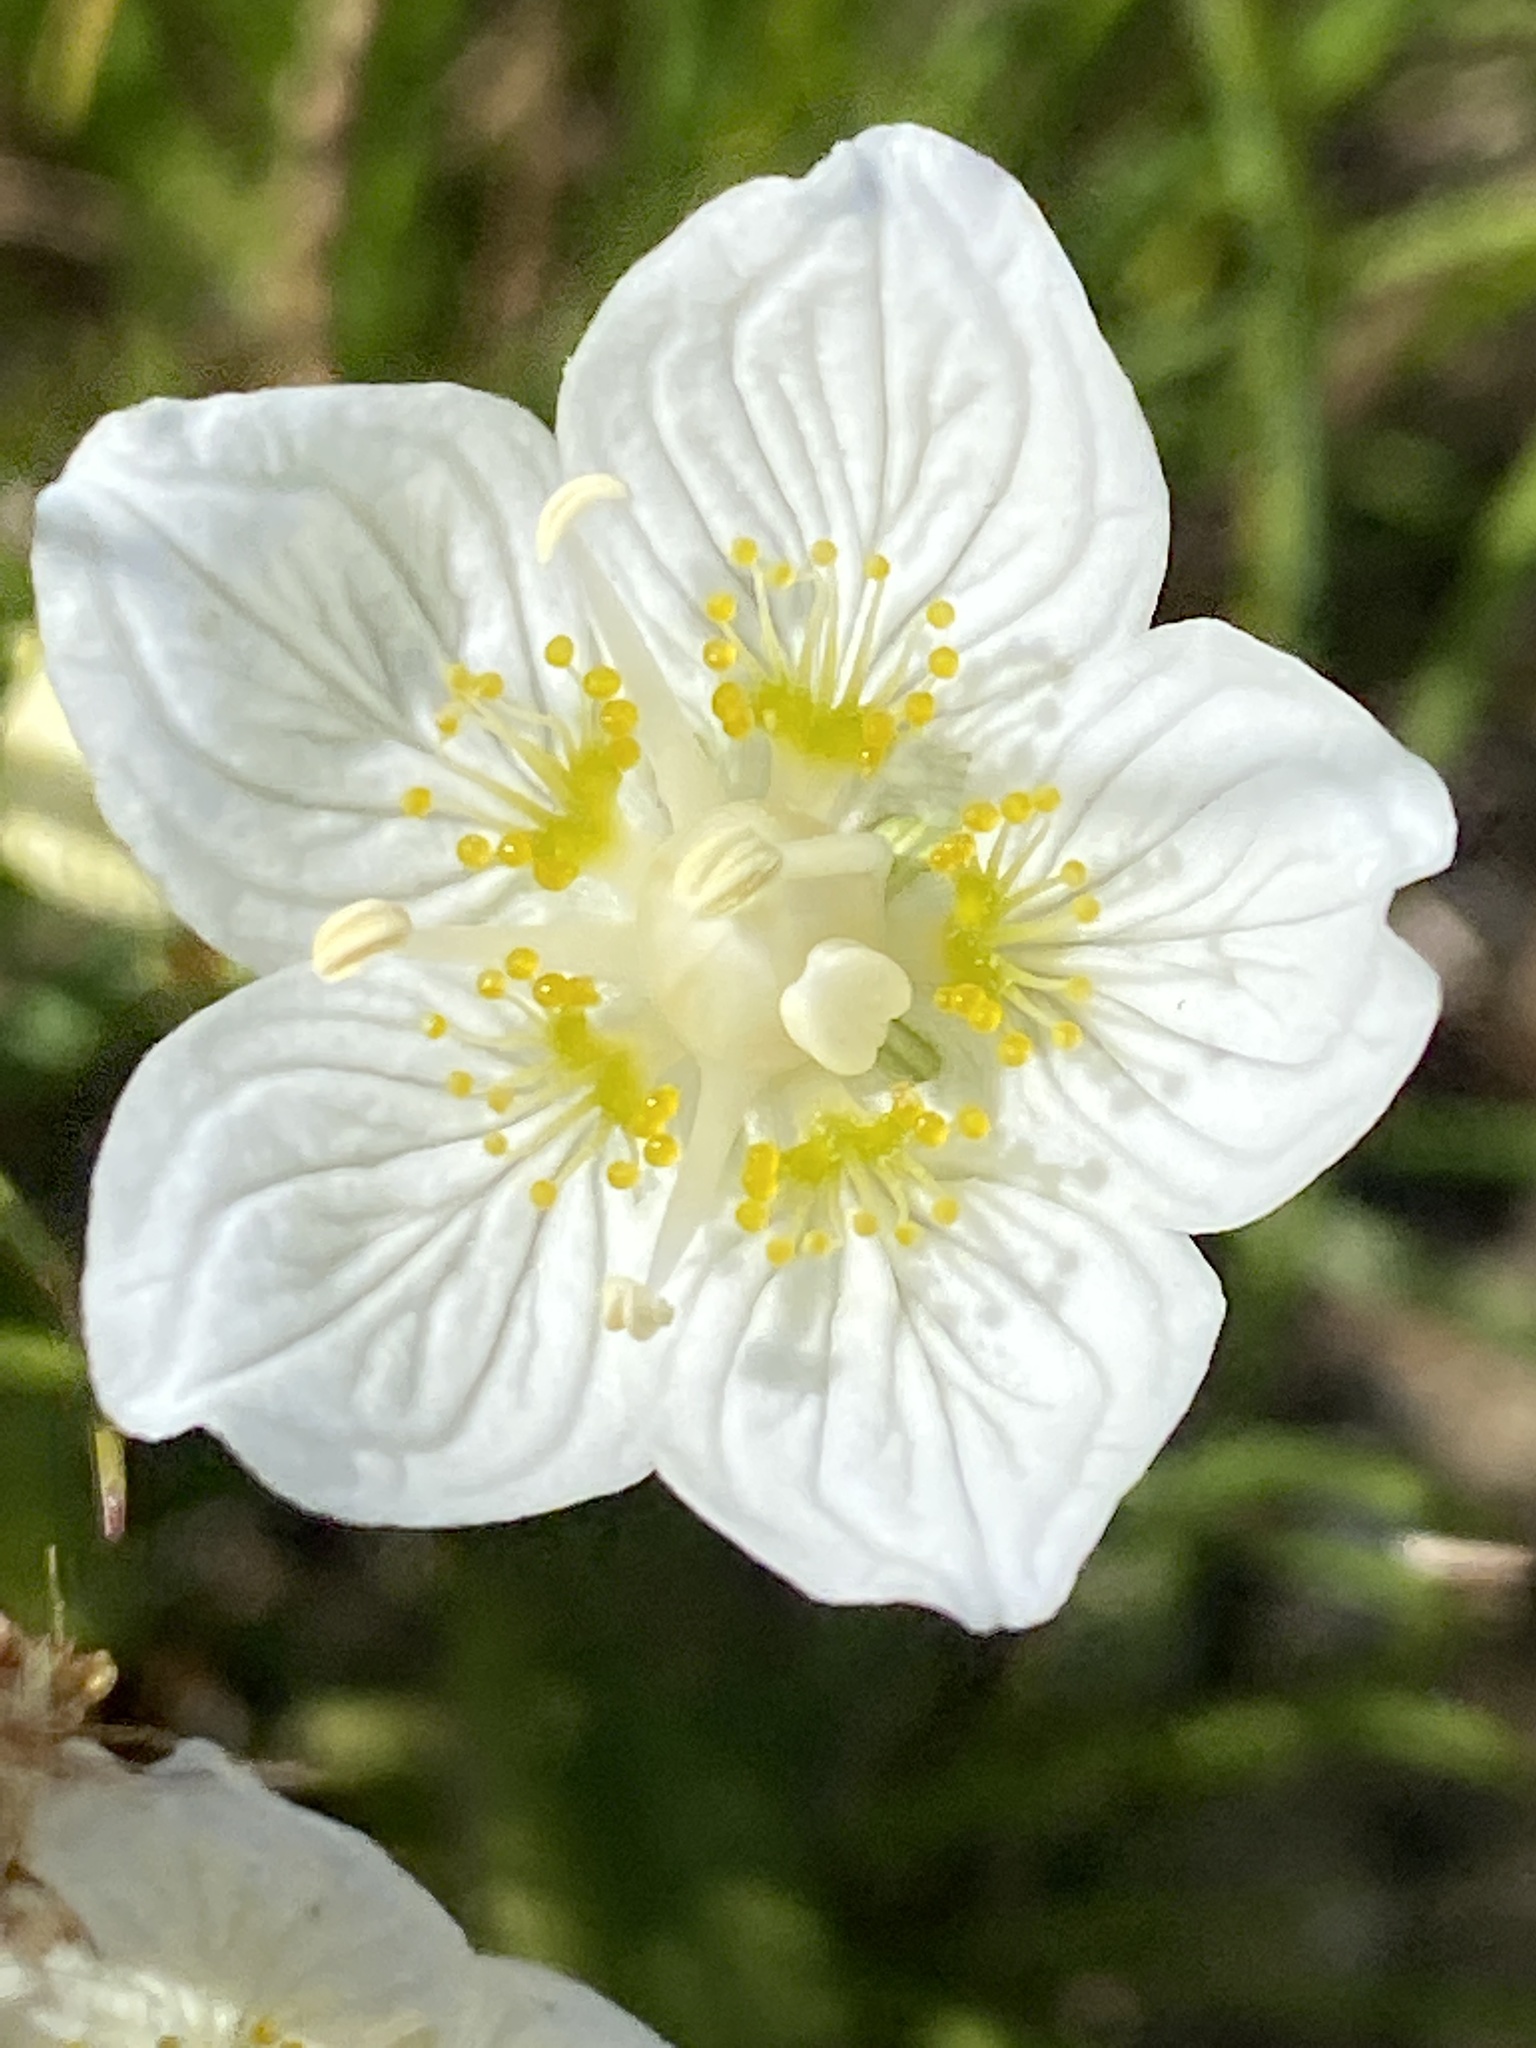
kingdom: Plantae
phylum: Tracheophyta
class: Magnoliopsida
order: Celastrales
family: Parnassiaceae
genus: Parnassia
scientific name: Parnassia palustris
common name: Grass-of-parnassus
